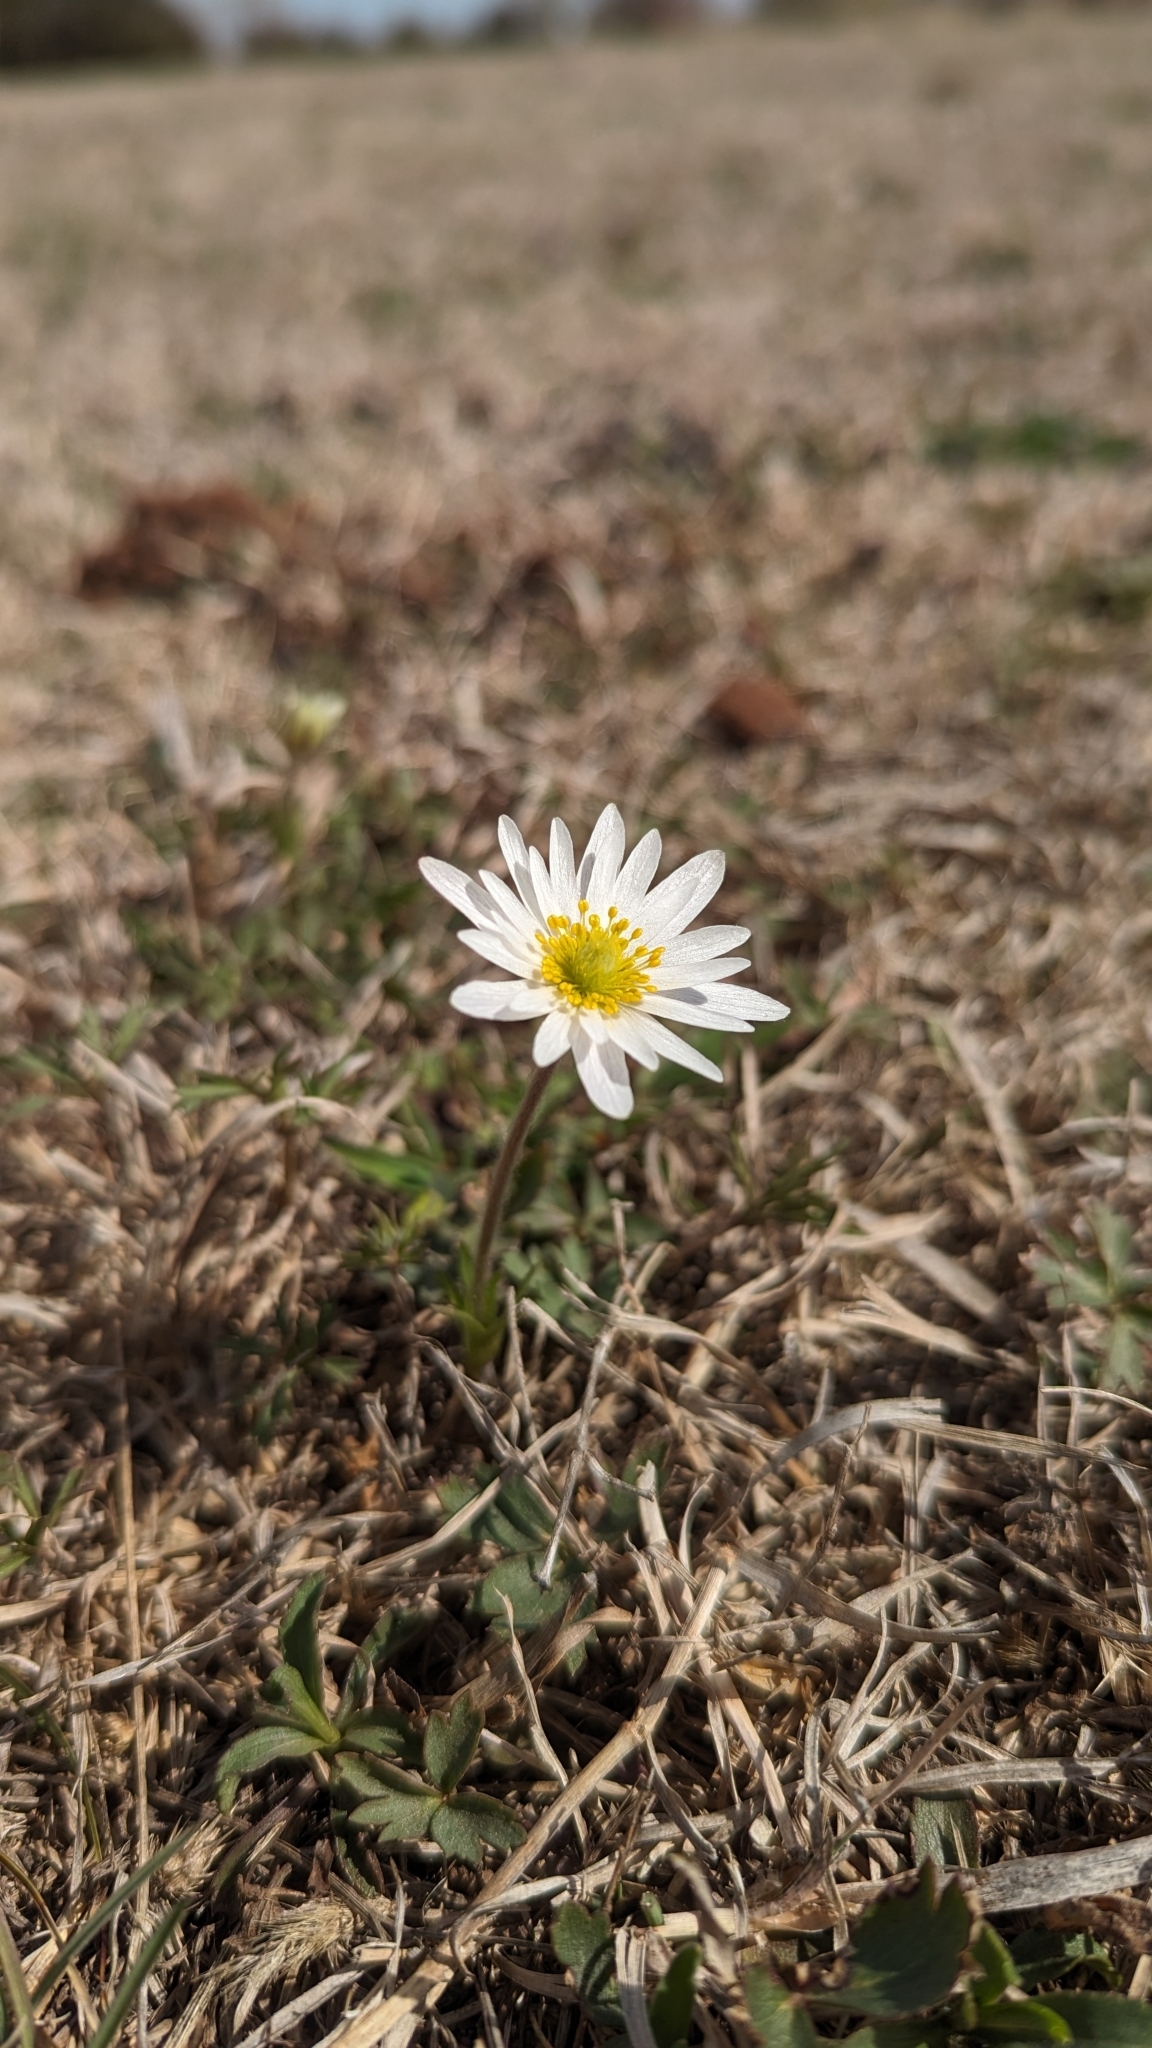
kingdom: Plantae
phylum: Tracheophyta
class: Magnoliopsida
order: Ranunculales
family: Ranunculaceae
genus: Anemone
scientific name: Anemone caroliniana
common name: Carolina anemone
